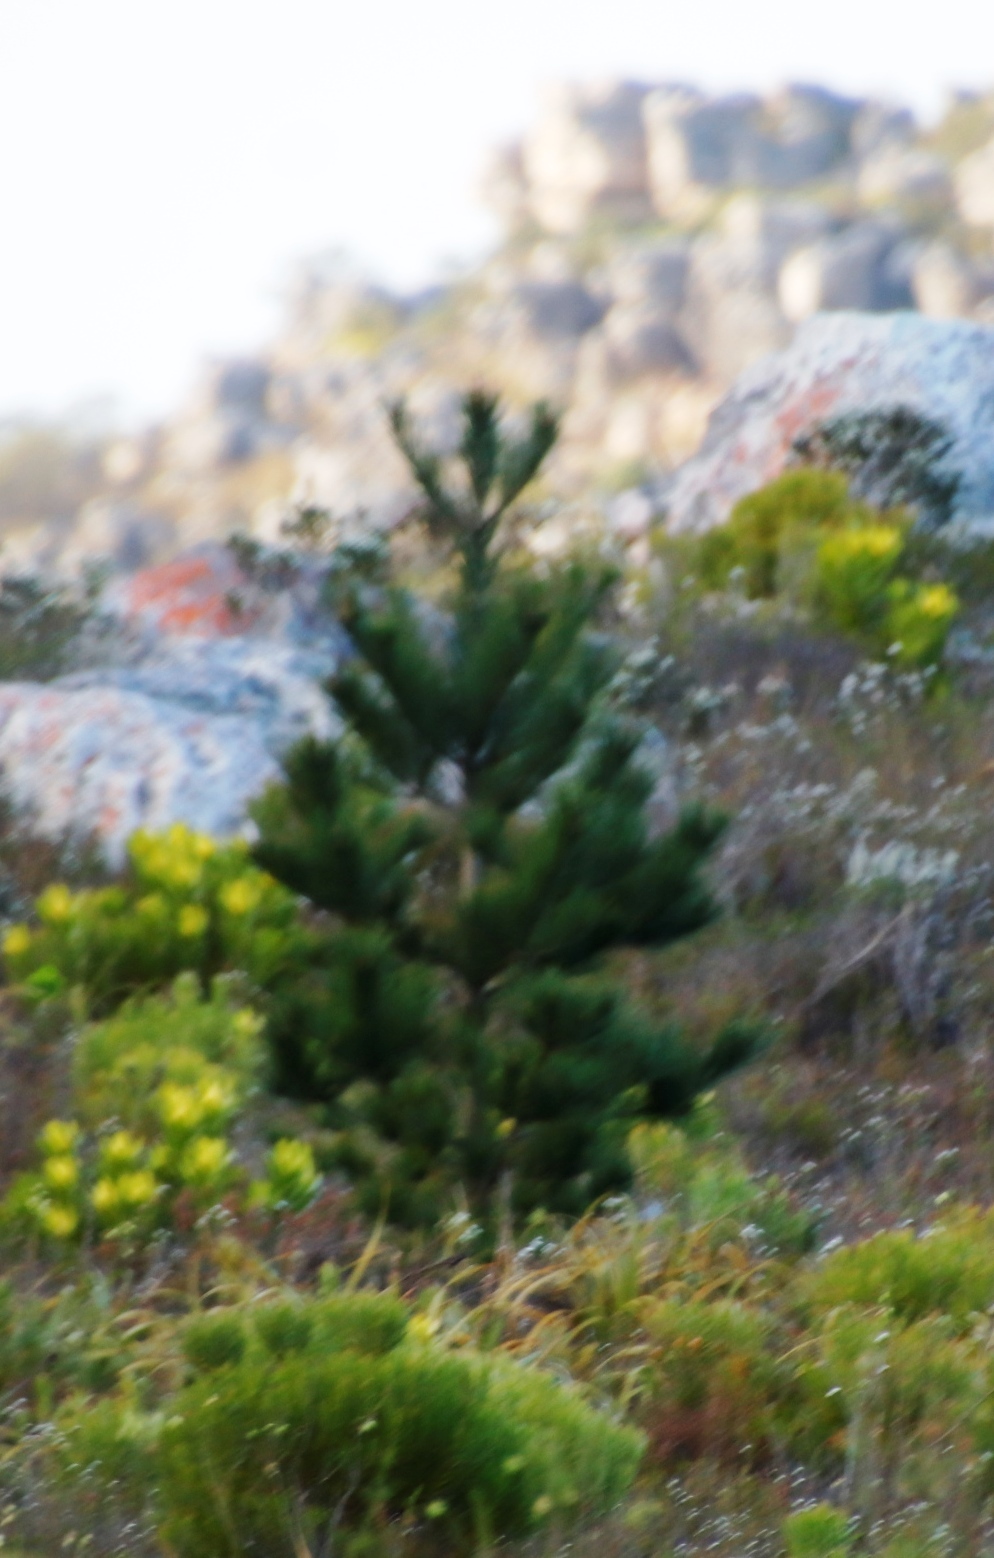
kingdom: Plantae
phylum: Tracheophyta
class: Pinopsida
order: Pinales
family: Pinaceae
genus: Pinus
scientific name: Pinus radiata
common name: Monterey pine
